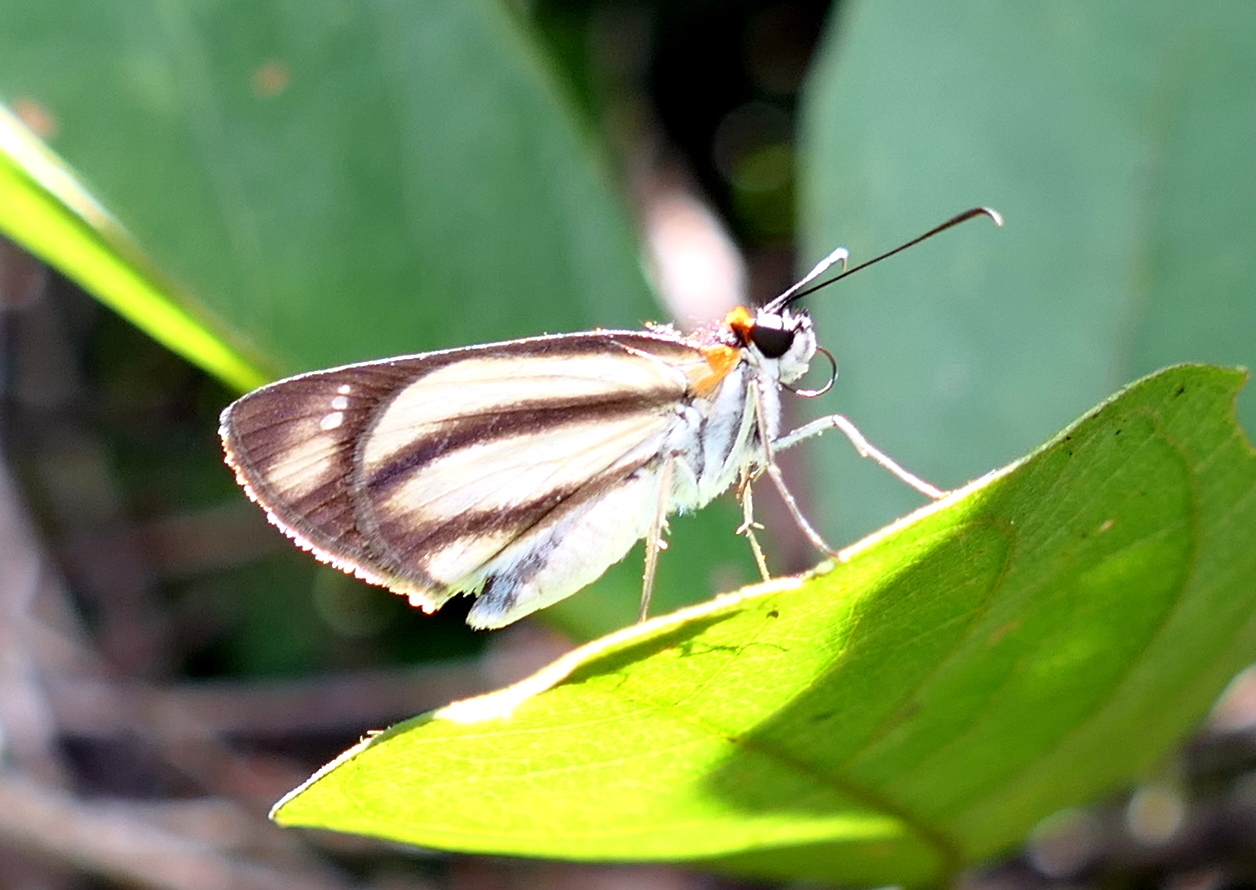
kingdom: Animalia
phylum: Arthropoda
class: Insecta
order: Lepidoptera
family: Hesperiidae
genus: Vettius
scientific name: Vettius marcus
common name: Marcus skipper
